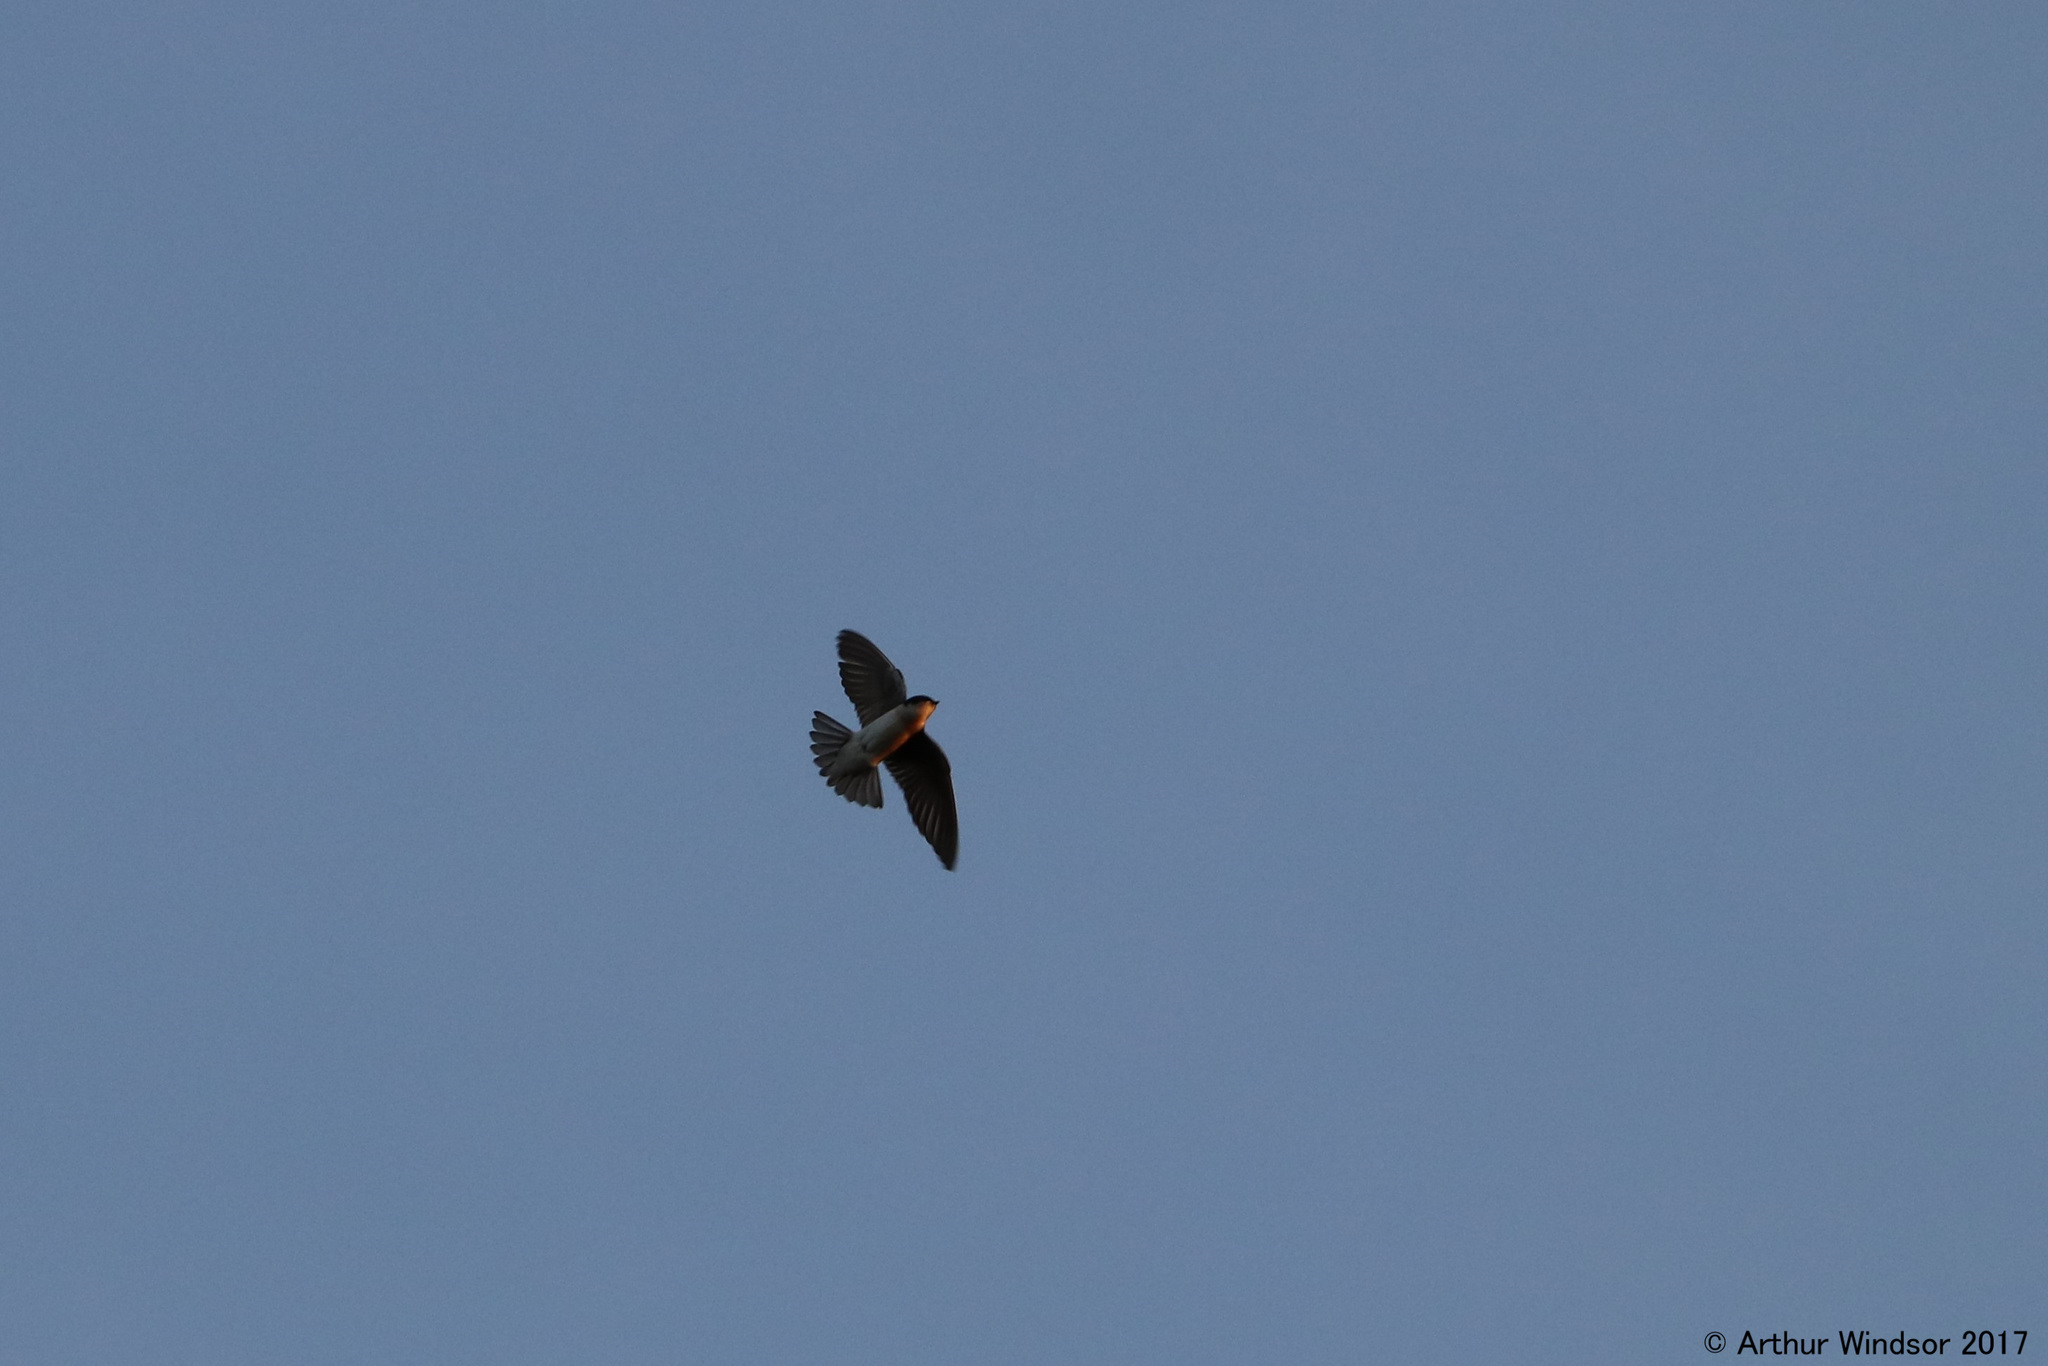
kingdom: Animalia
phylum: Chordata
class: Aves
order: Passeriformes
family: Hirundinidae
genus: Tachycineta
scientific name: Tachycineta bicolor
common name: Tree swallow
